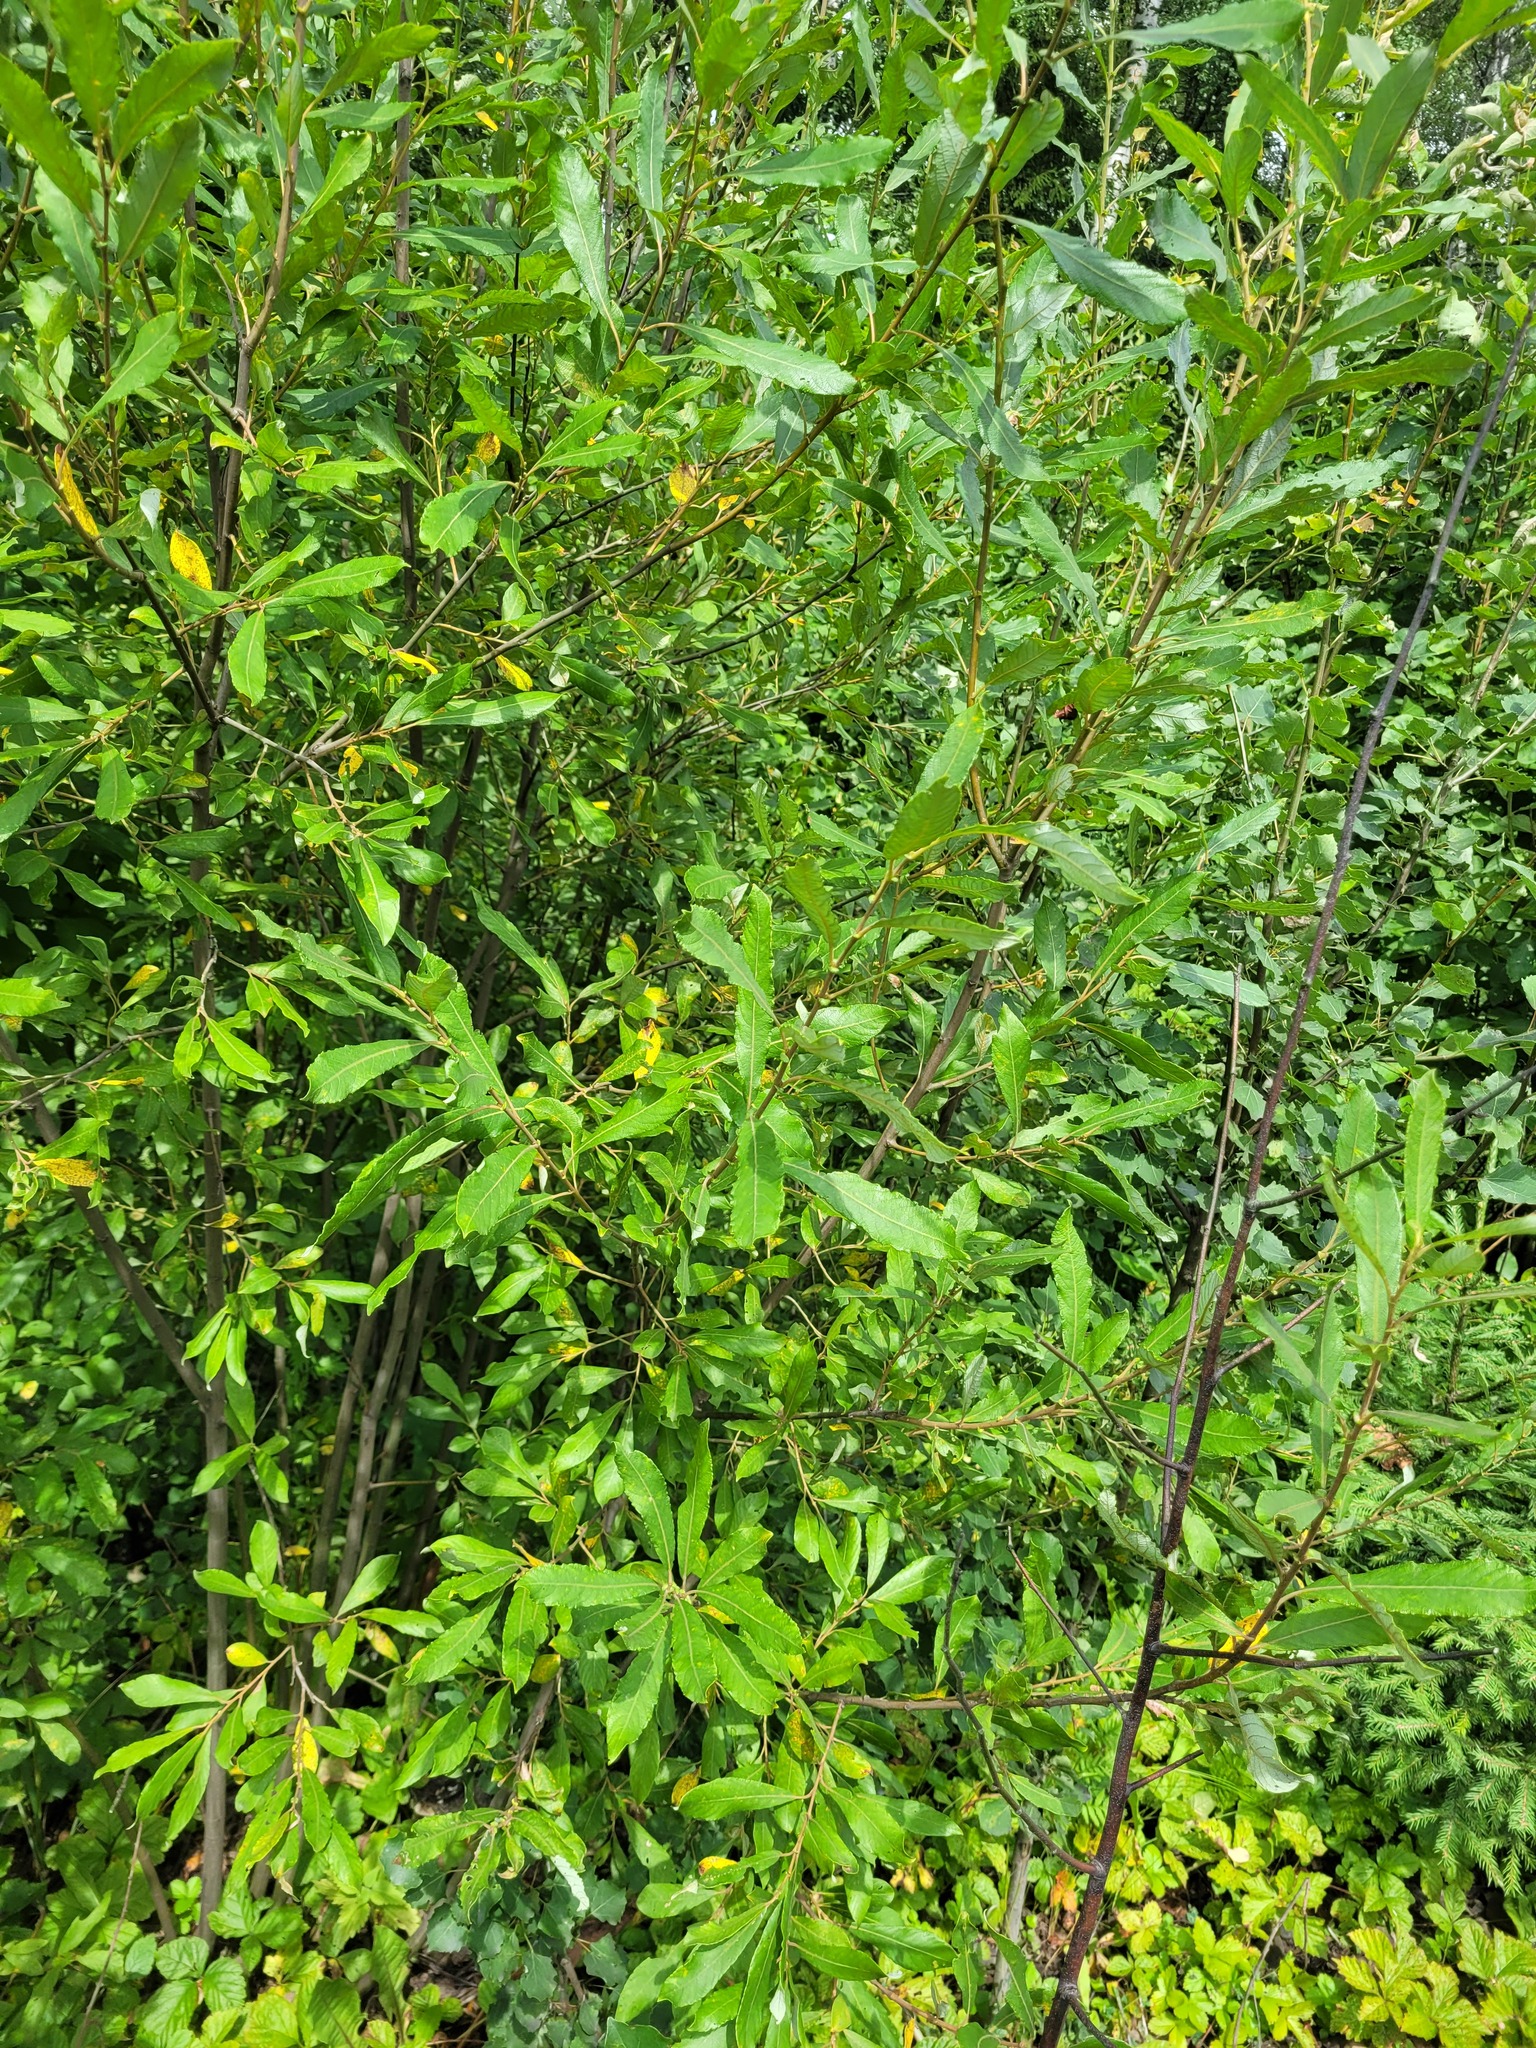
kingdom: Plantae
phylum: Tracheophyta
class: Magnoliopsida
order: Malpighiales
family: Salicaceae
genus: Salix
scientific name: Salix cinerea
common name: Common sallow
